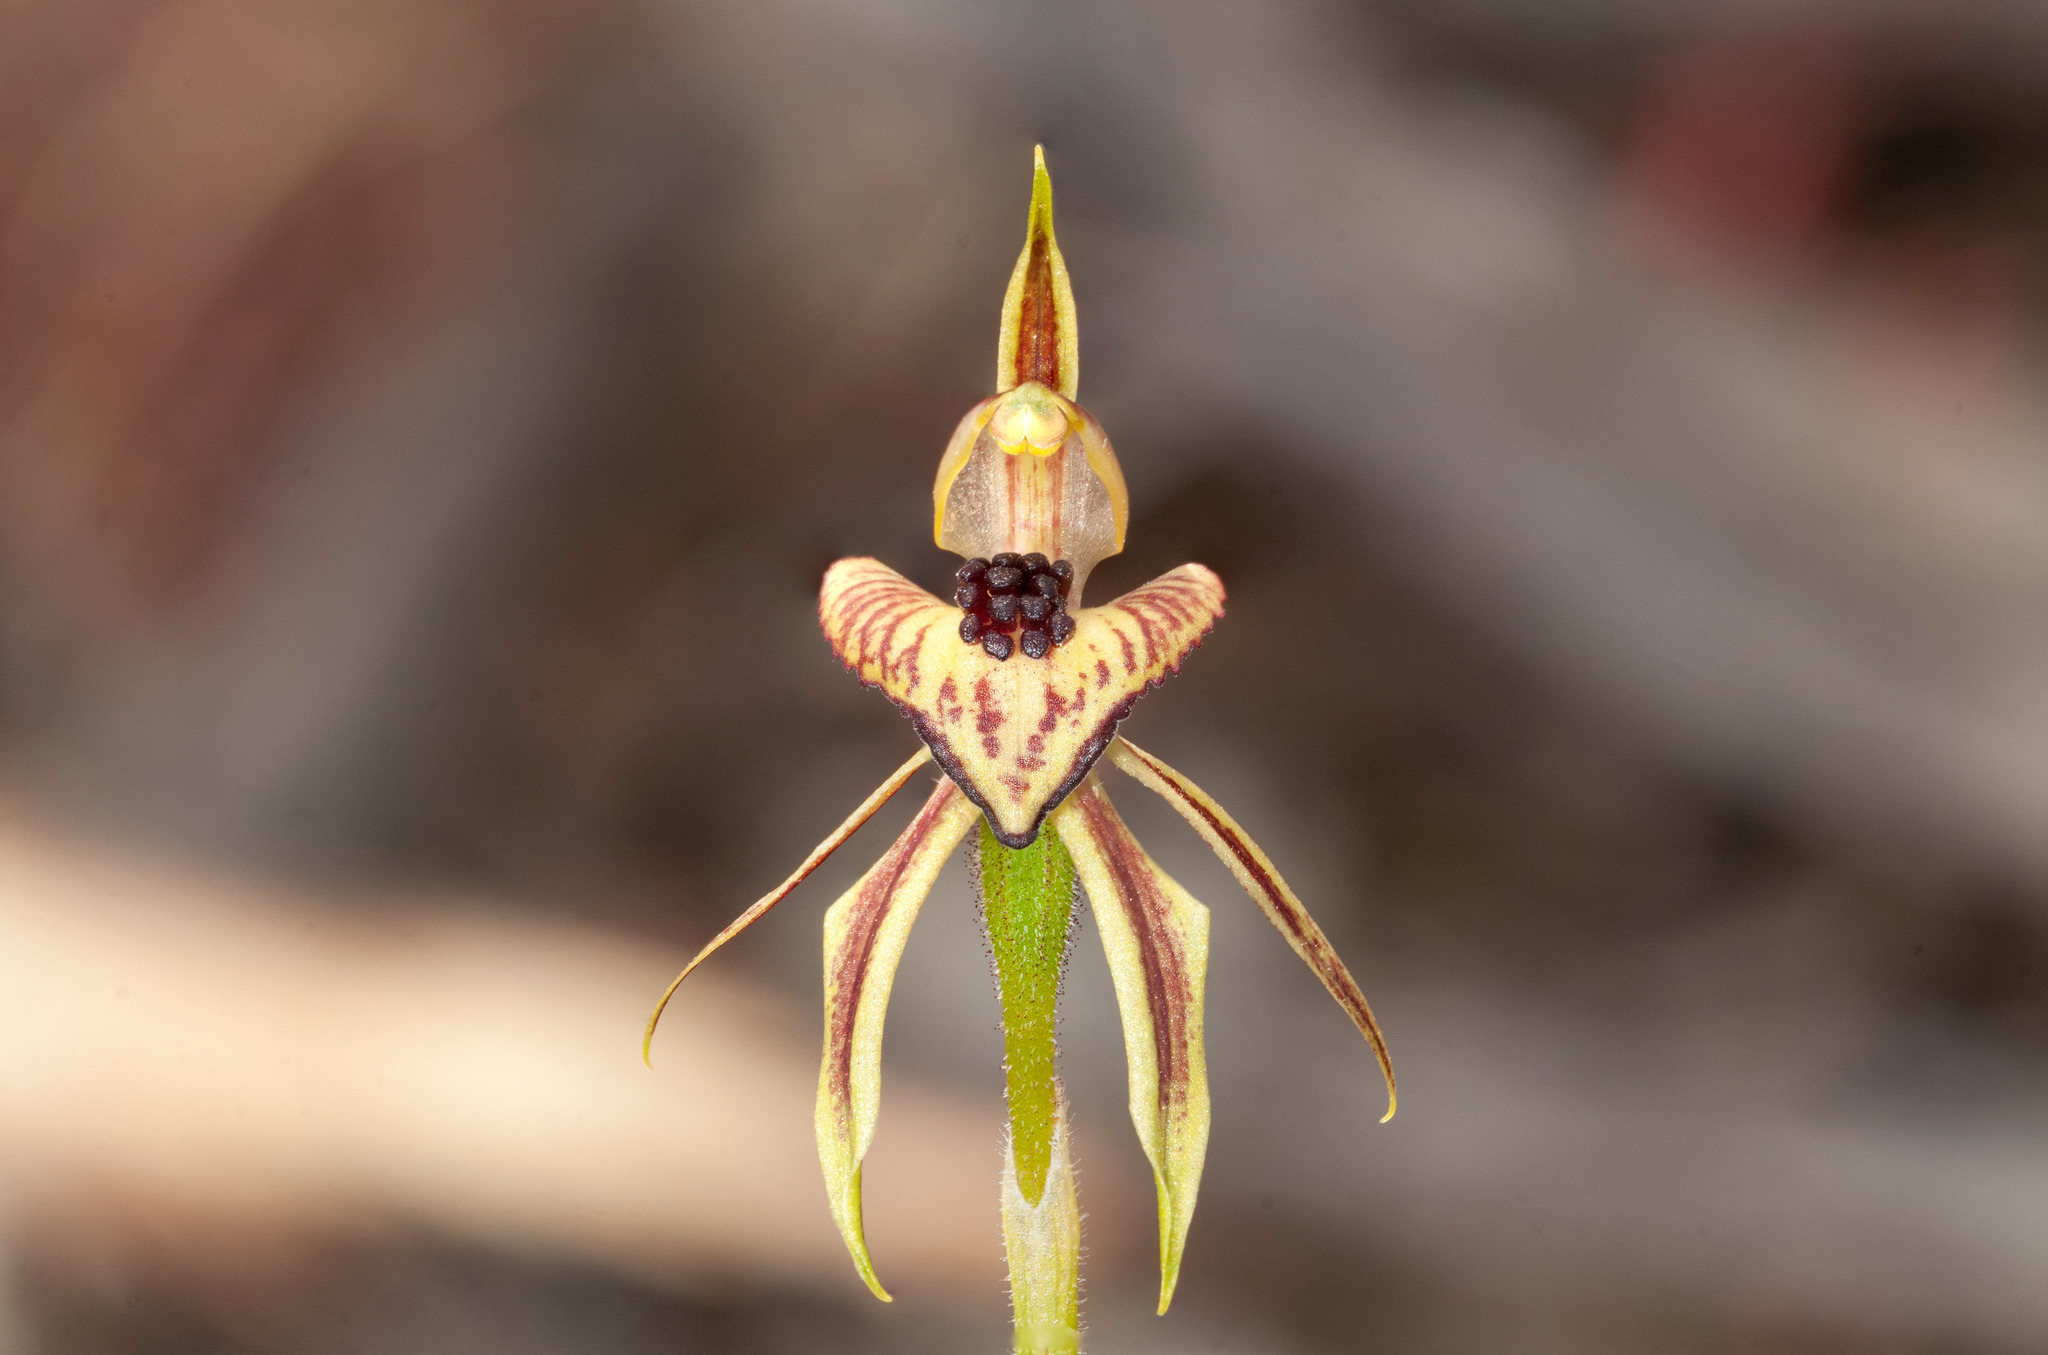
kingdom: Plantae
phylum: Tracheophyta
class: Liliopsida
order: Asparagales
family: Orchidaceae
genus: Caladenia
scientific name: Caladenia cardiochila
